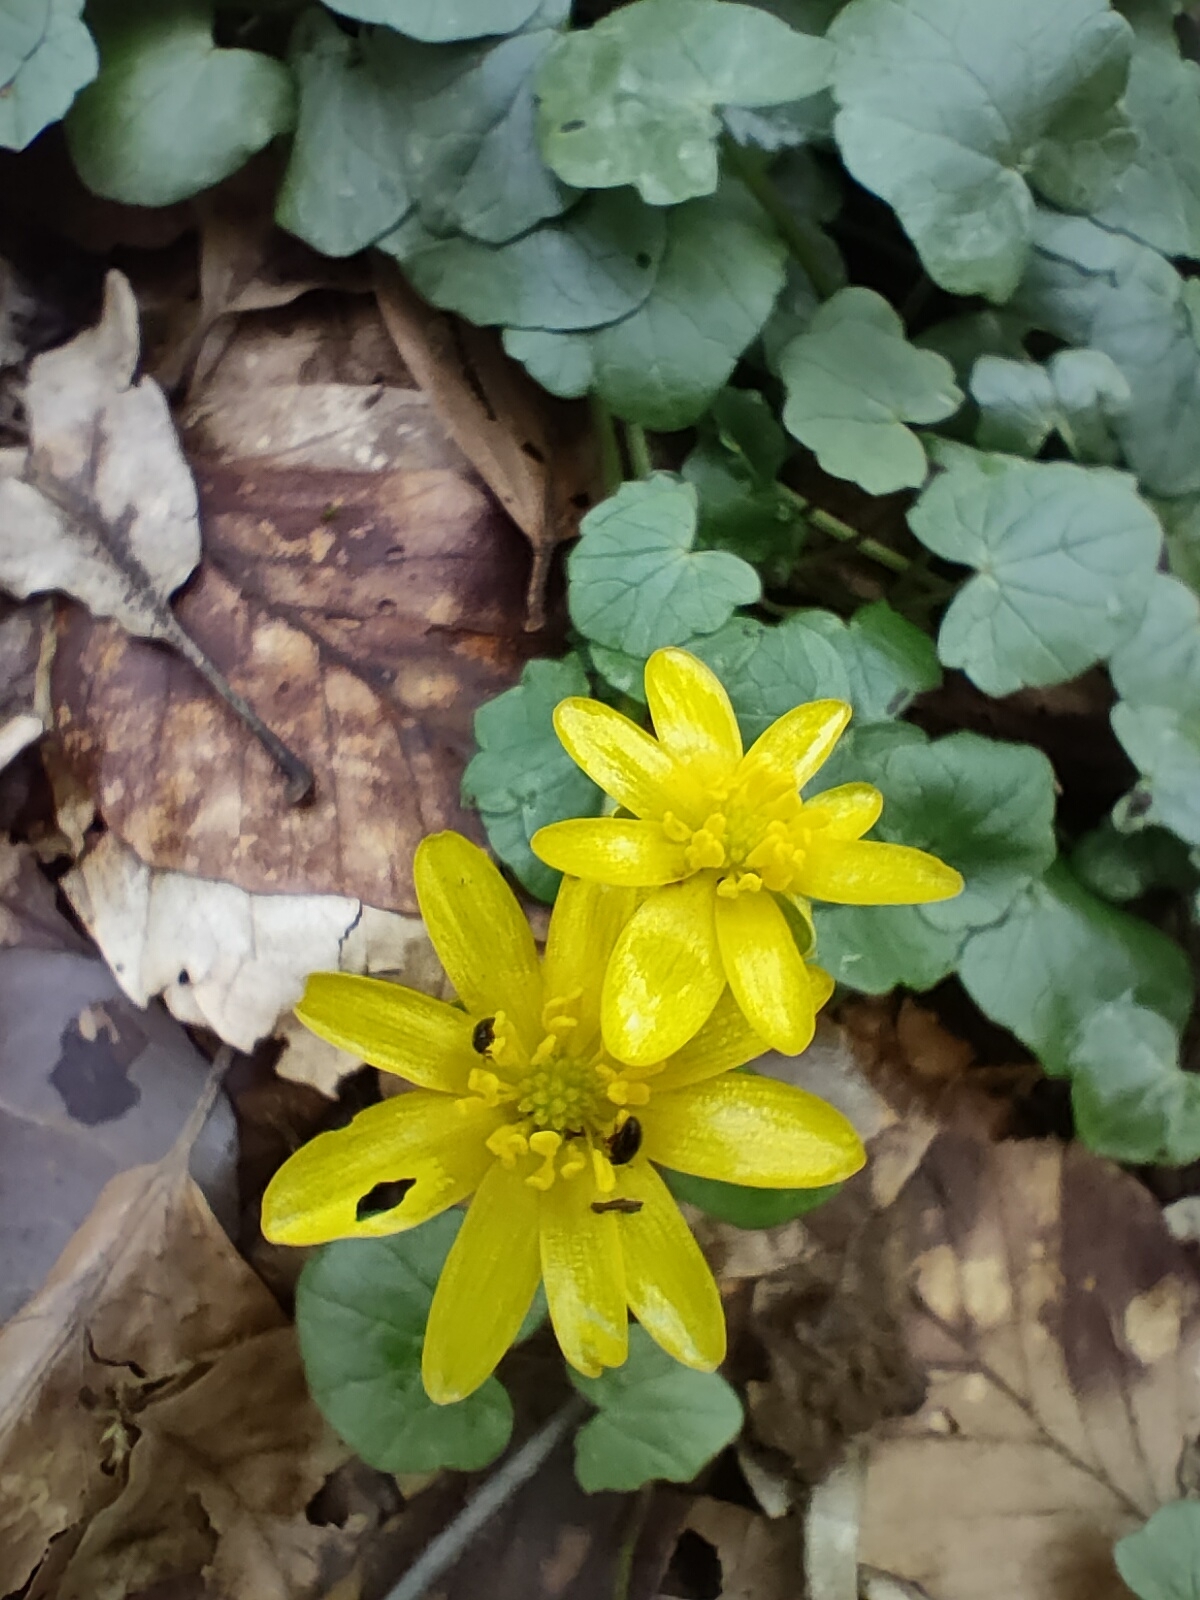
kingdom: Plantae
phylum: Tracheophyta
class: Magnoliopsida
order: Ranunculales
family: Ranunculaceae
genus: Ficaria
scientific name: Ficaria verna
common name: Lesser celandine
